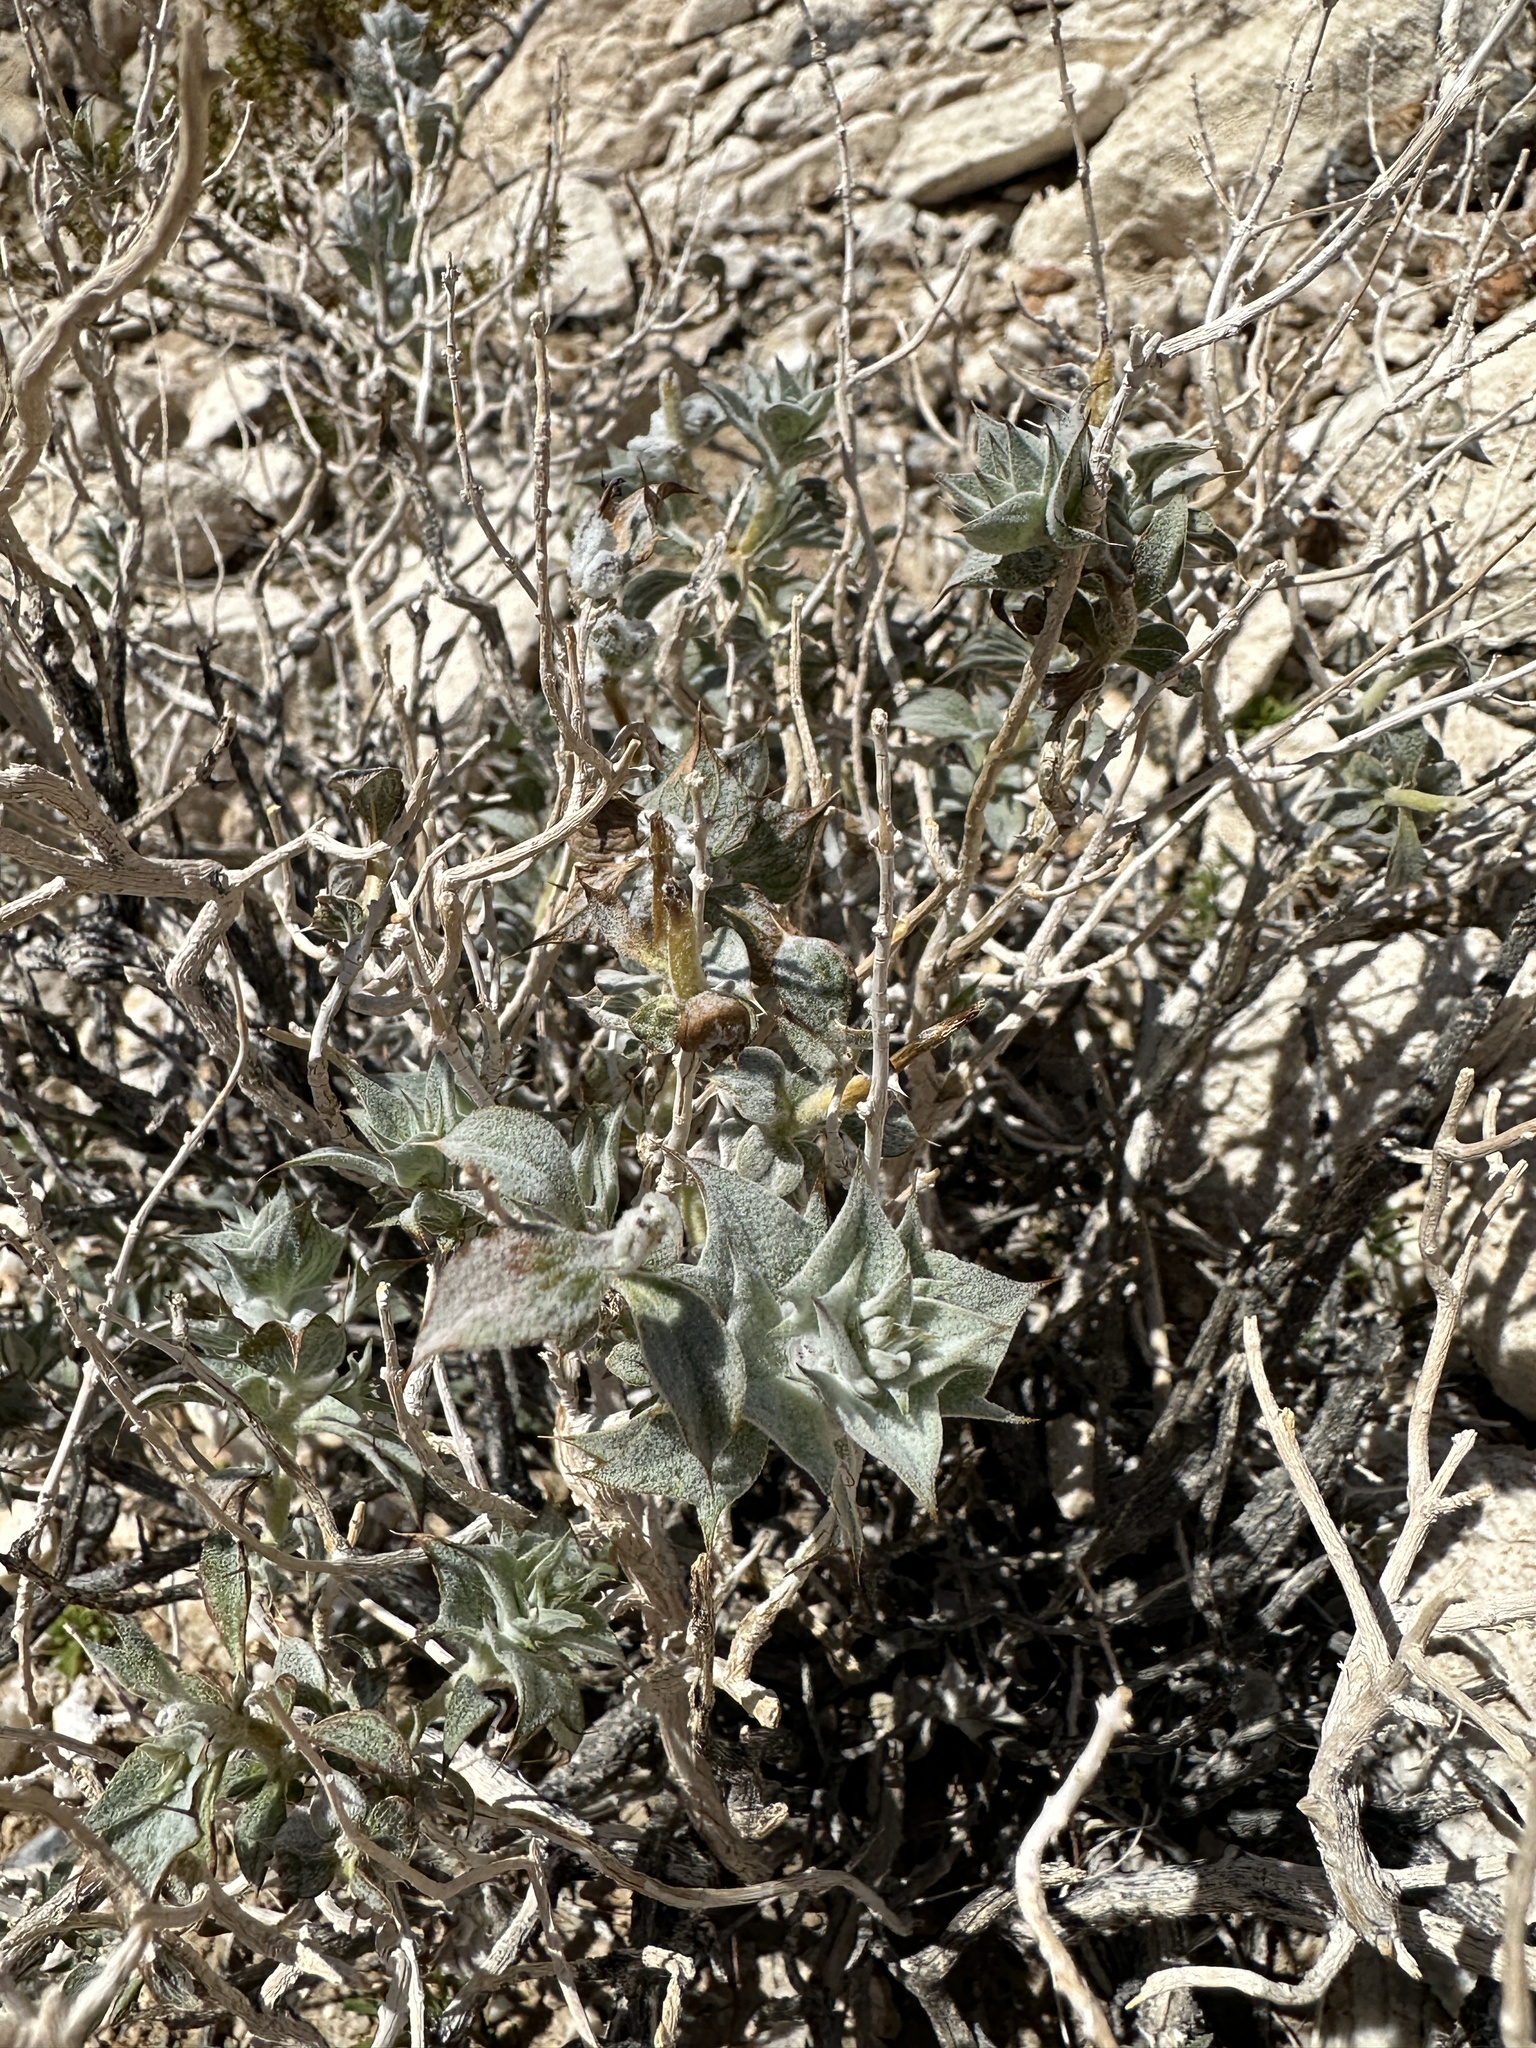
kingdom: Plantae
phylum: Tracheophyta
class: Magnoliopsida
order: Lamiales
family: Lamiaceae
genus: Salvia
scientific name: Salvia funerea
